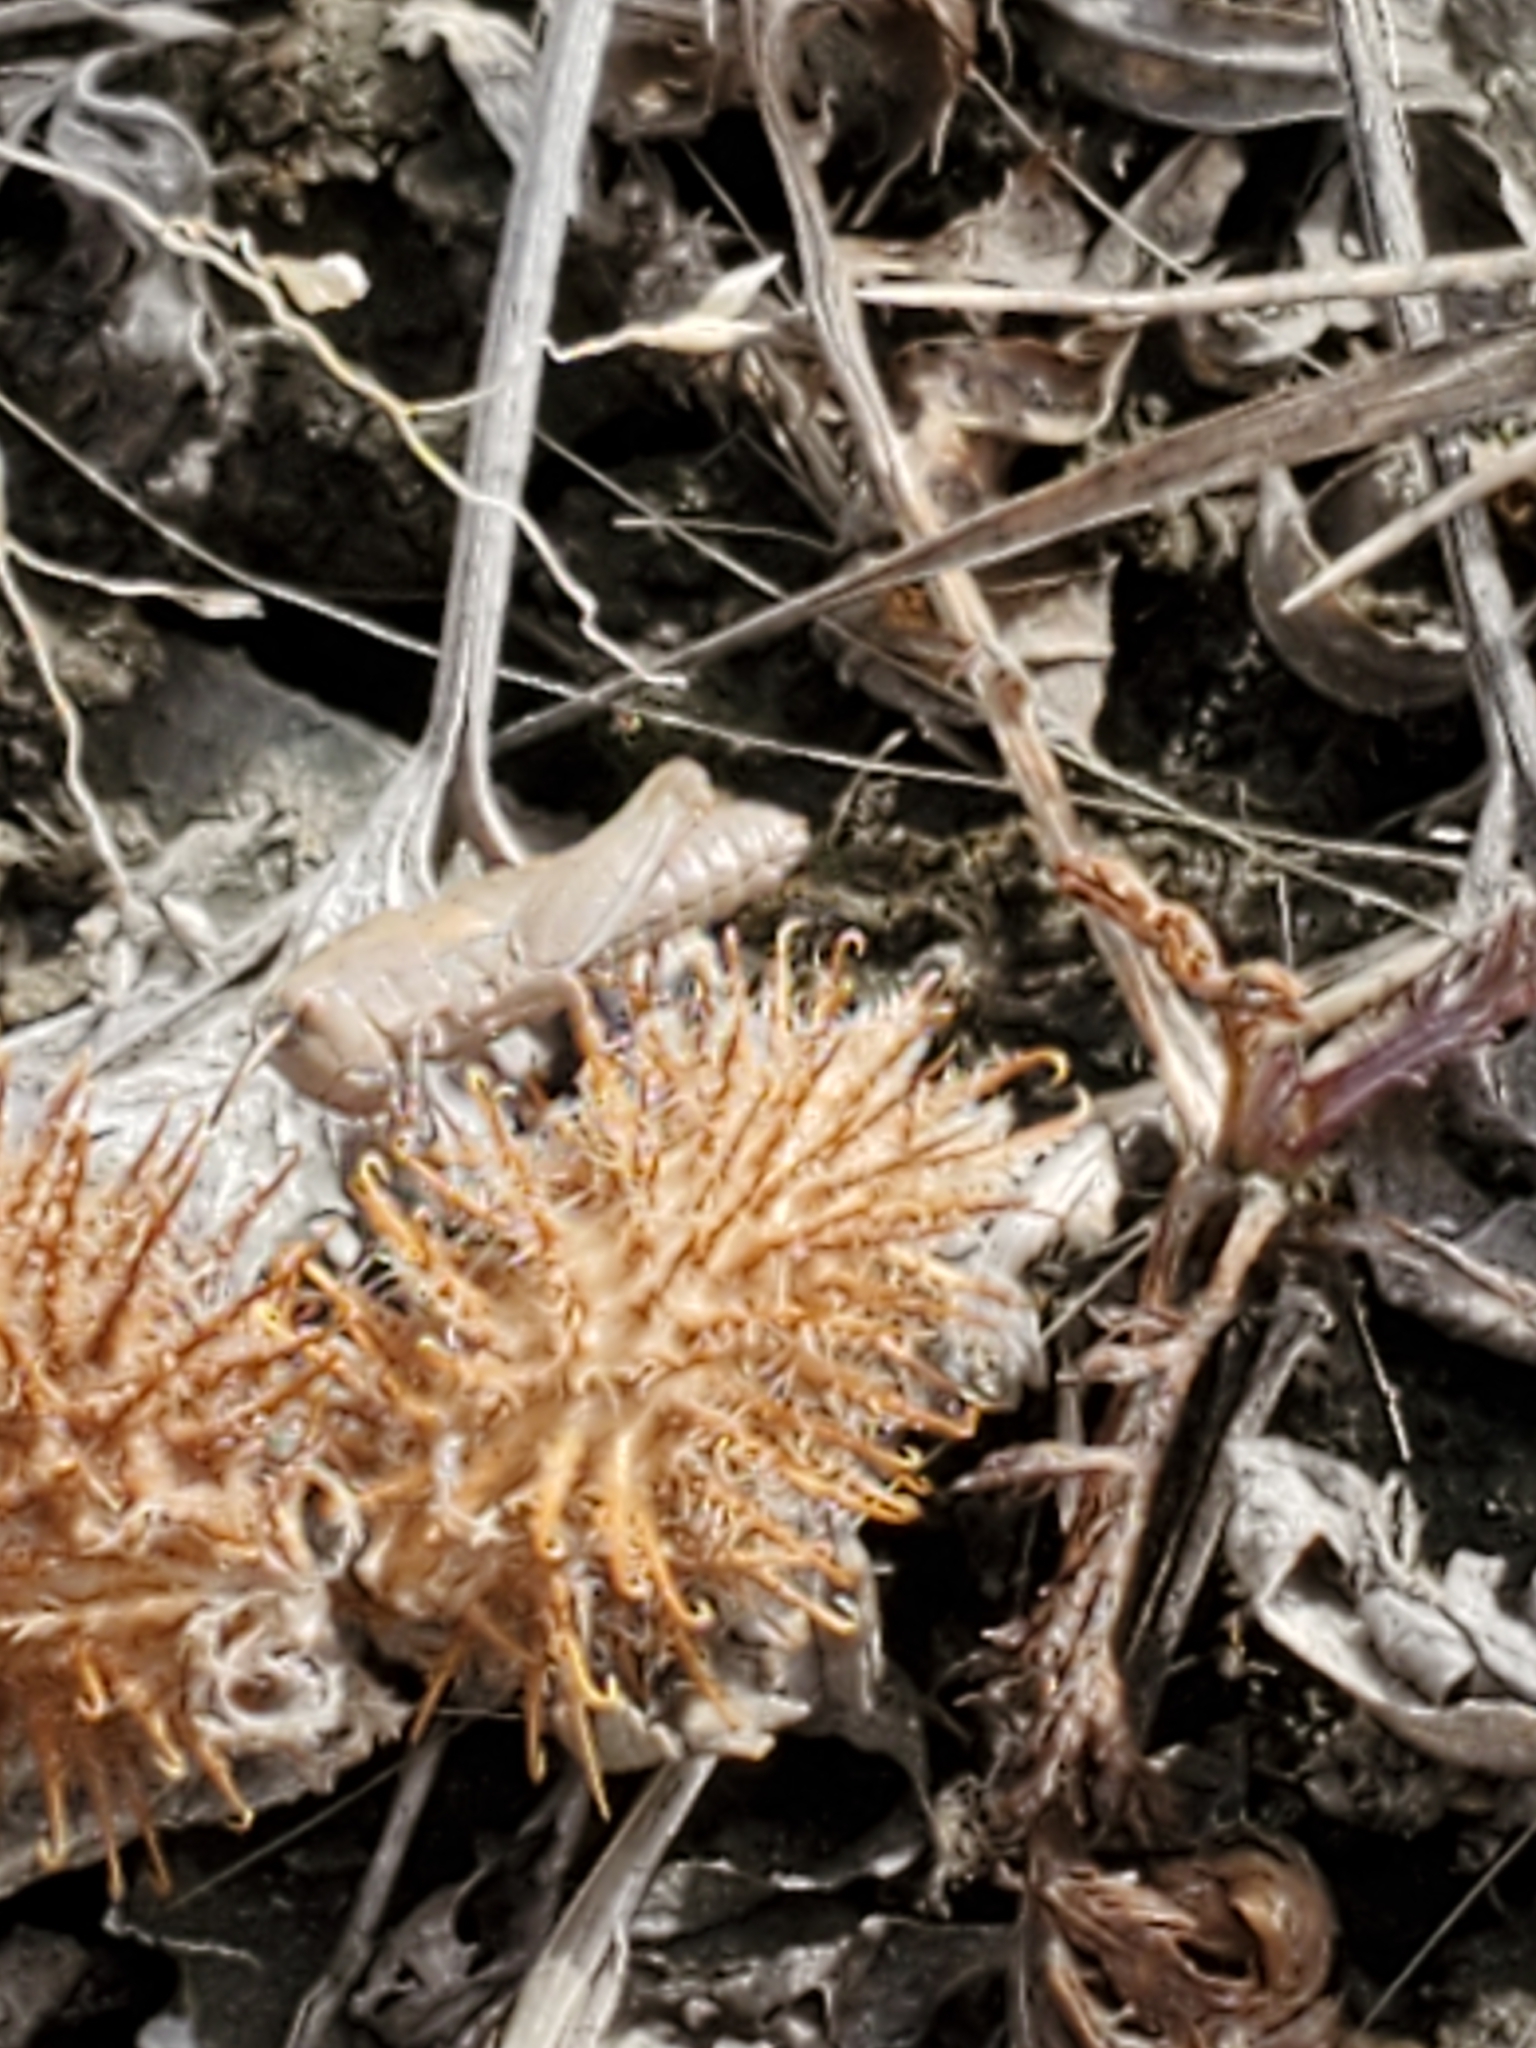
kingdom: Animalia
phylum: Arthropoda
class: Insecta
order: Orthoptera
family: Acrididae
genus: Chortophaga
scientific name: Chortophaga viridifasciata
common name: Green-striped grasshopper
